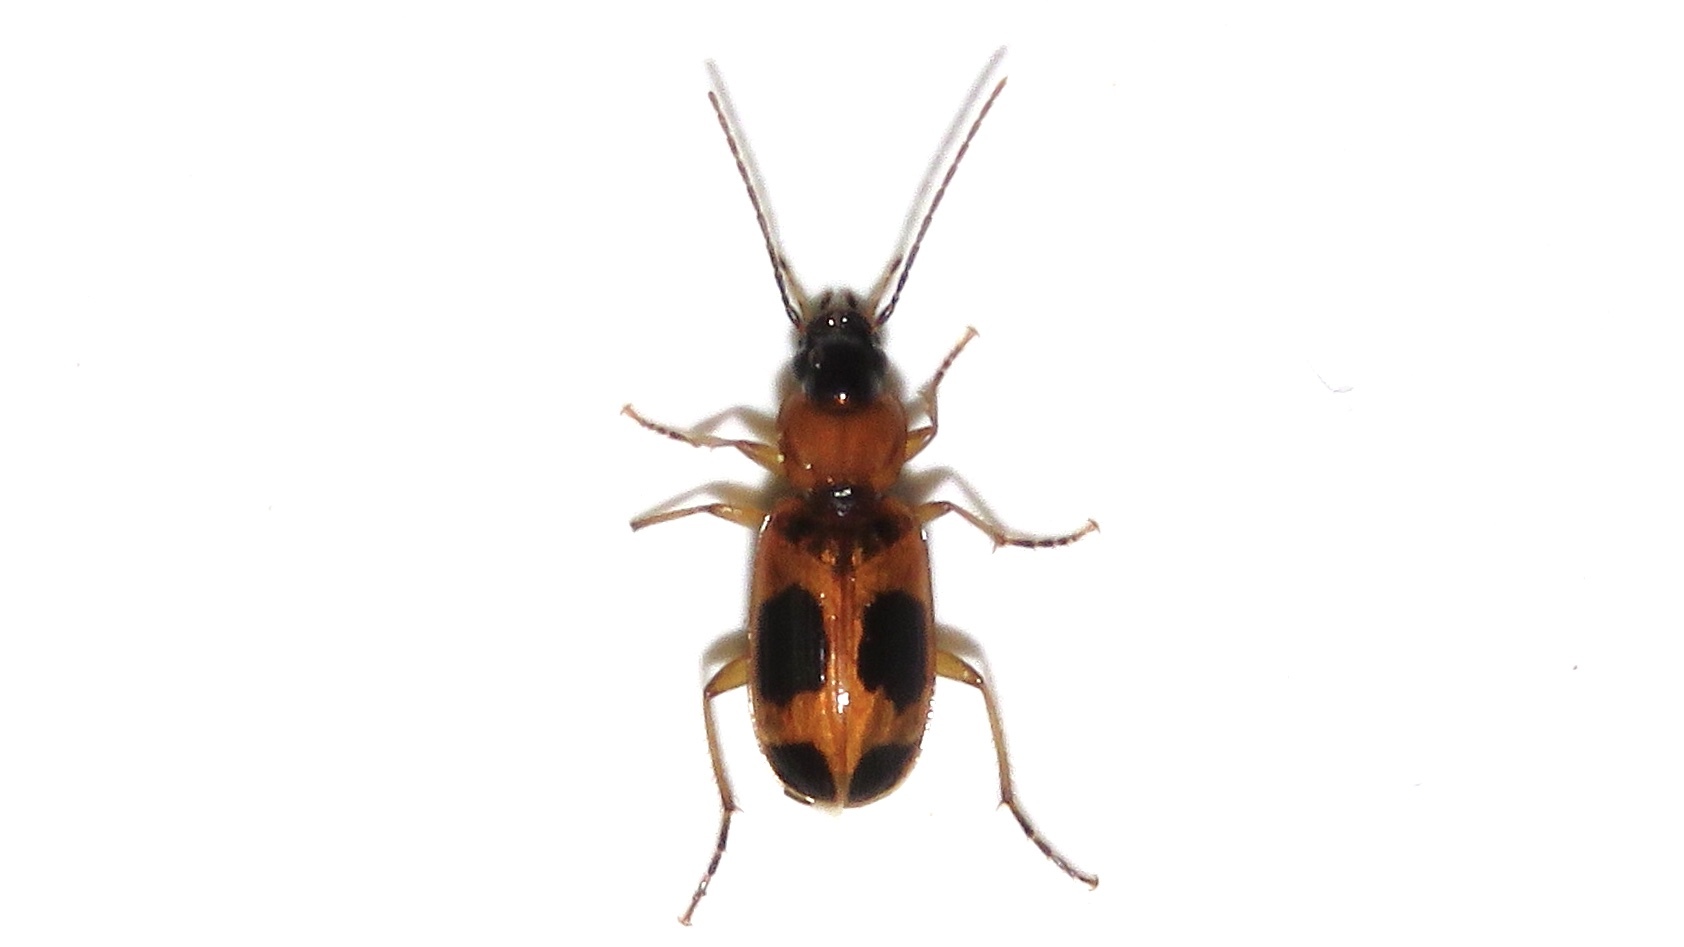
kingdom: Animalia
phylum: Arthropoda
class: Insecta
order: Coleoptera
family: Carabidae
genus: Badister
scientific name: Badister neopulchellus
